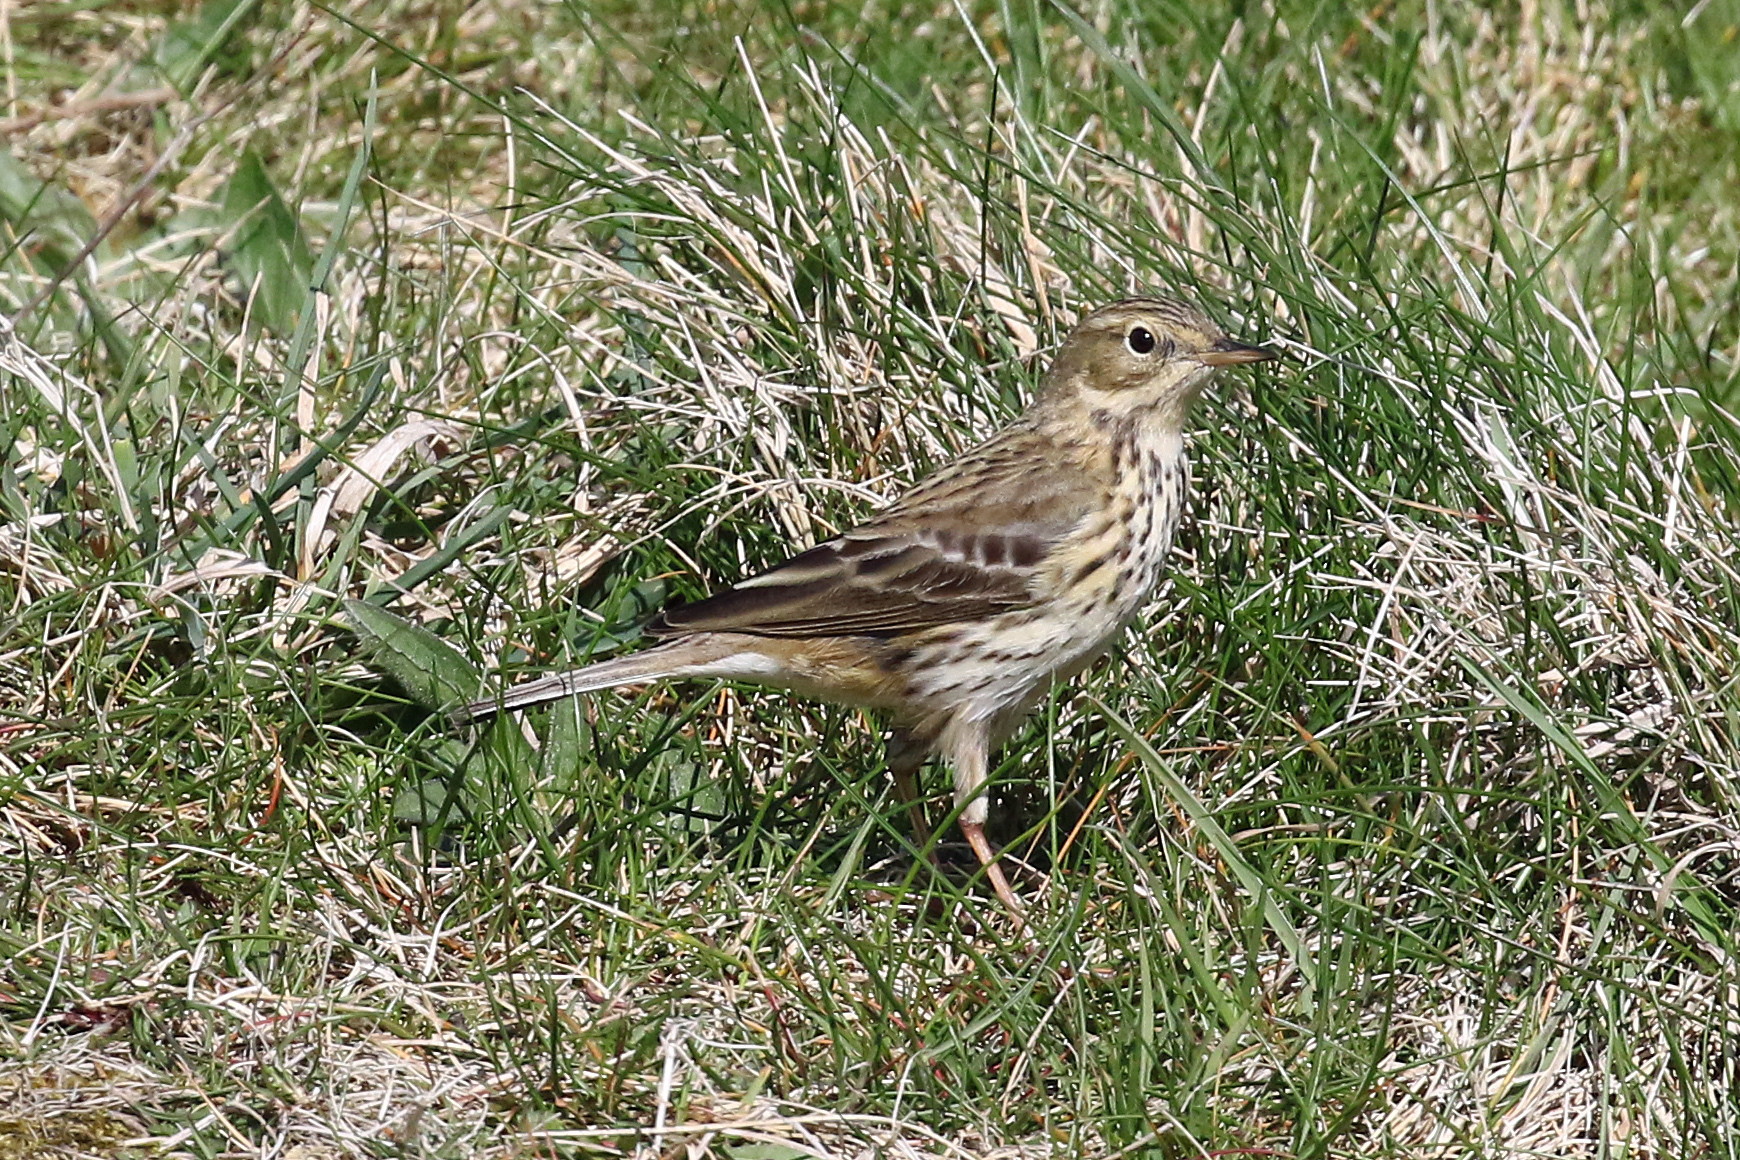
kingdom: Animalia
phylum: Chordata
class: Aves
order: Passeriformes
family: Motacillidae
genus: Anthus
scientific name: Anthus pratensis
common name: Meadow pipit
